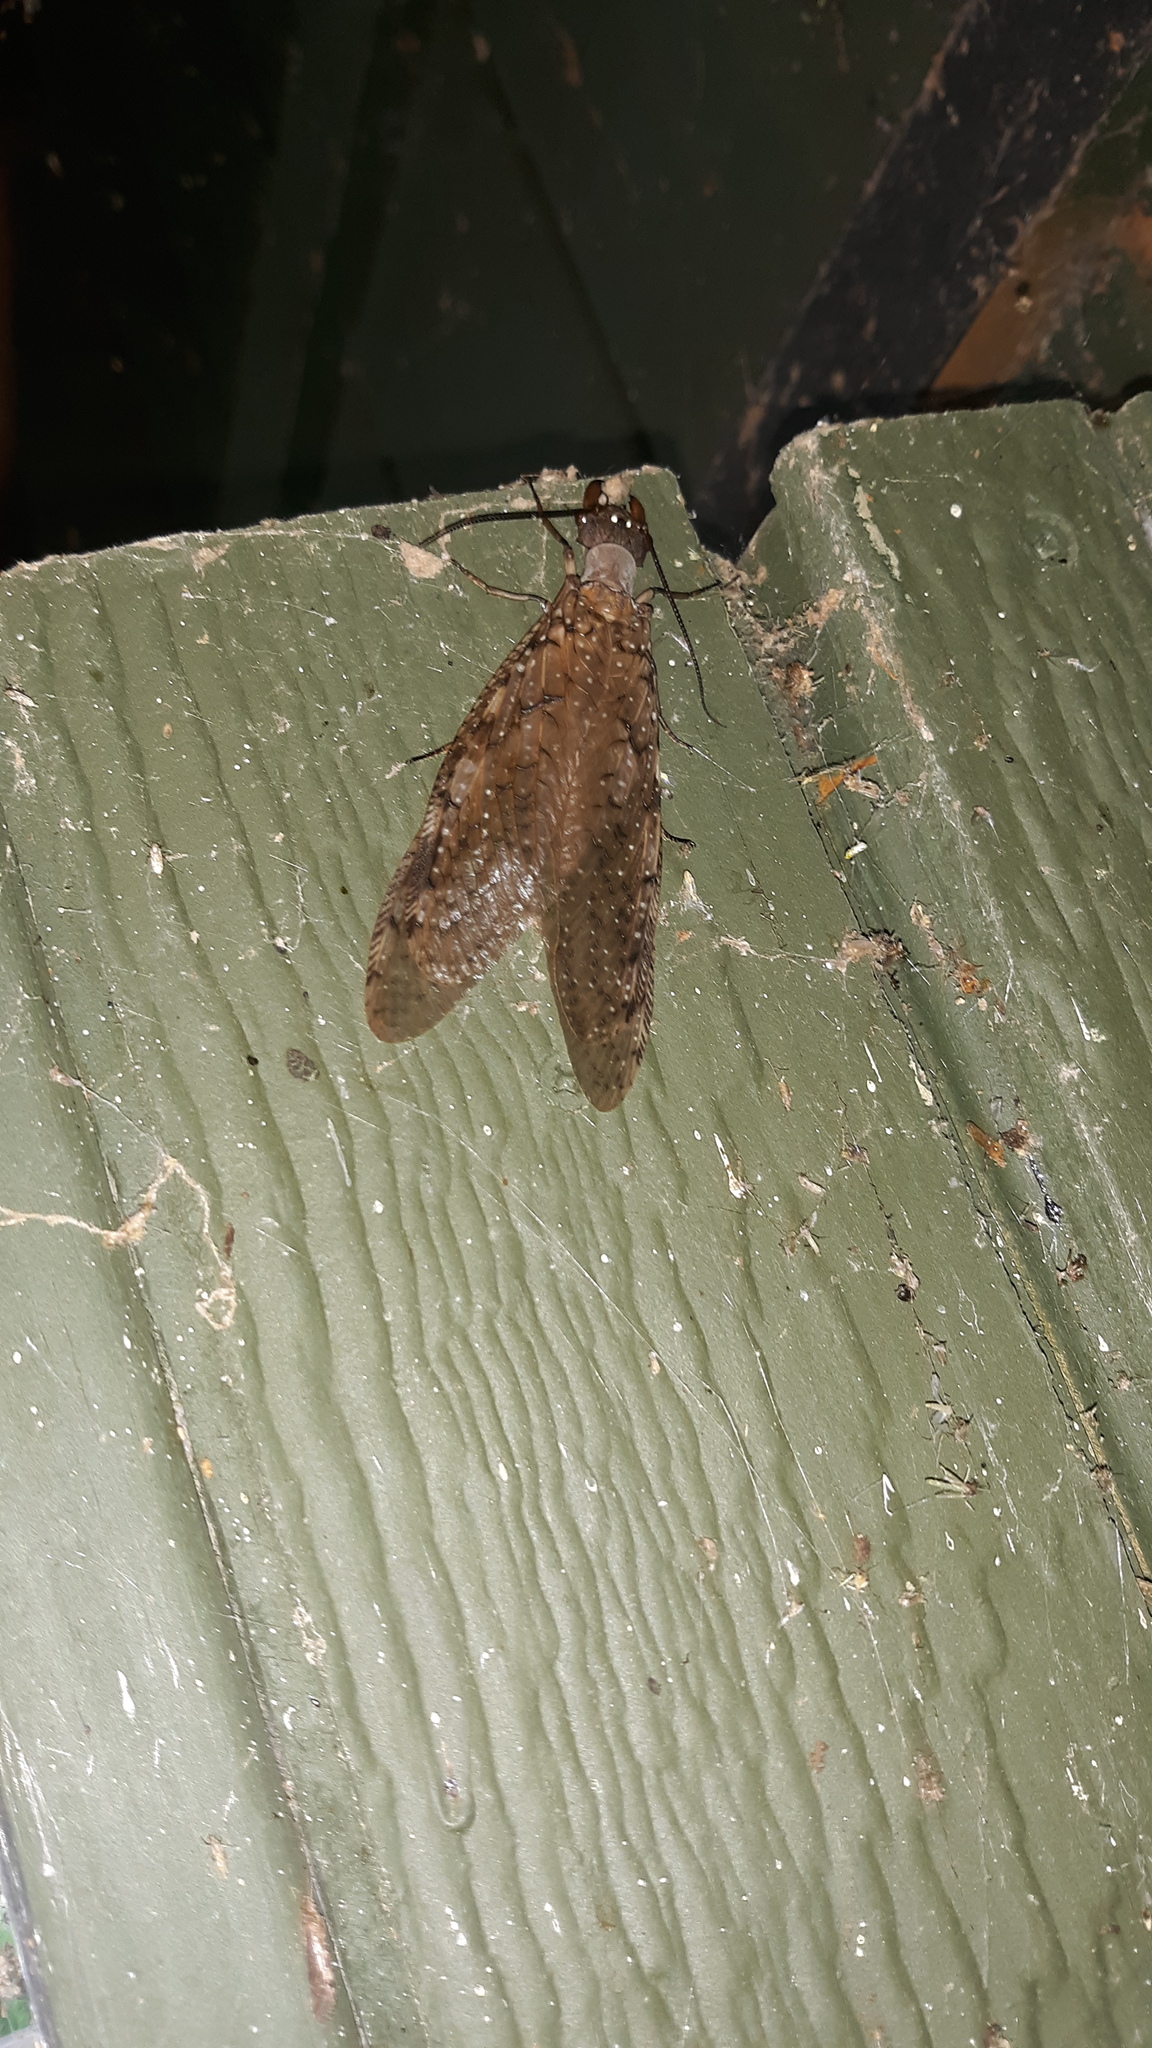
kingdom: Animalia
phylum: Arthropoda
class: Insecta
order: Megaloptera
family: Corydalidae
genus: Corydalus
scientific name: Corydalus cornutus
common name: Dobsonfly
